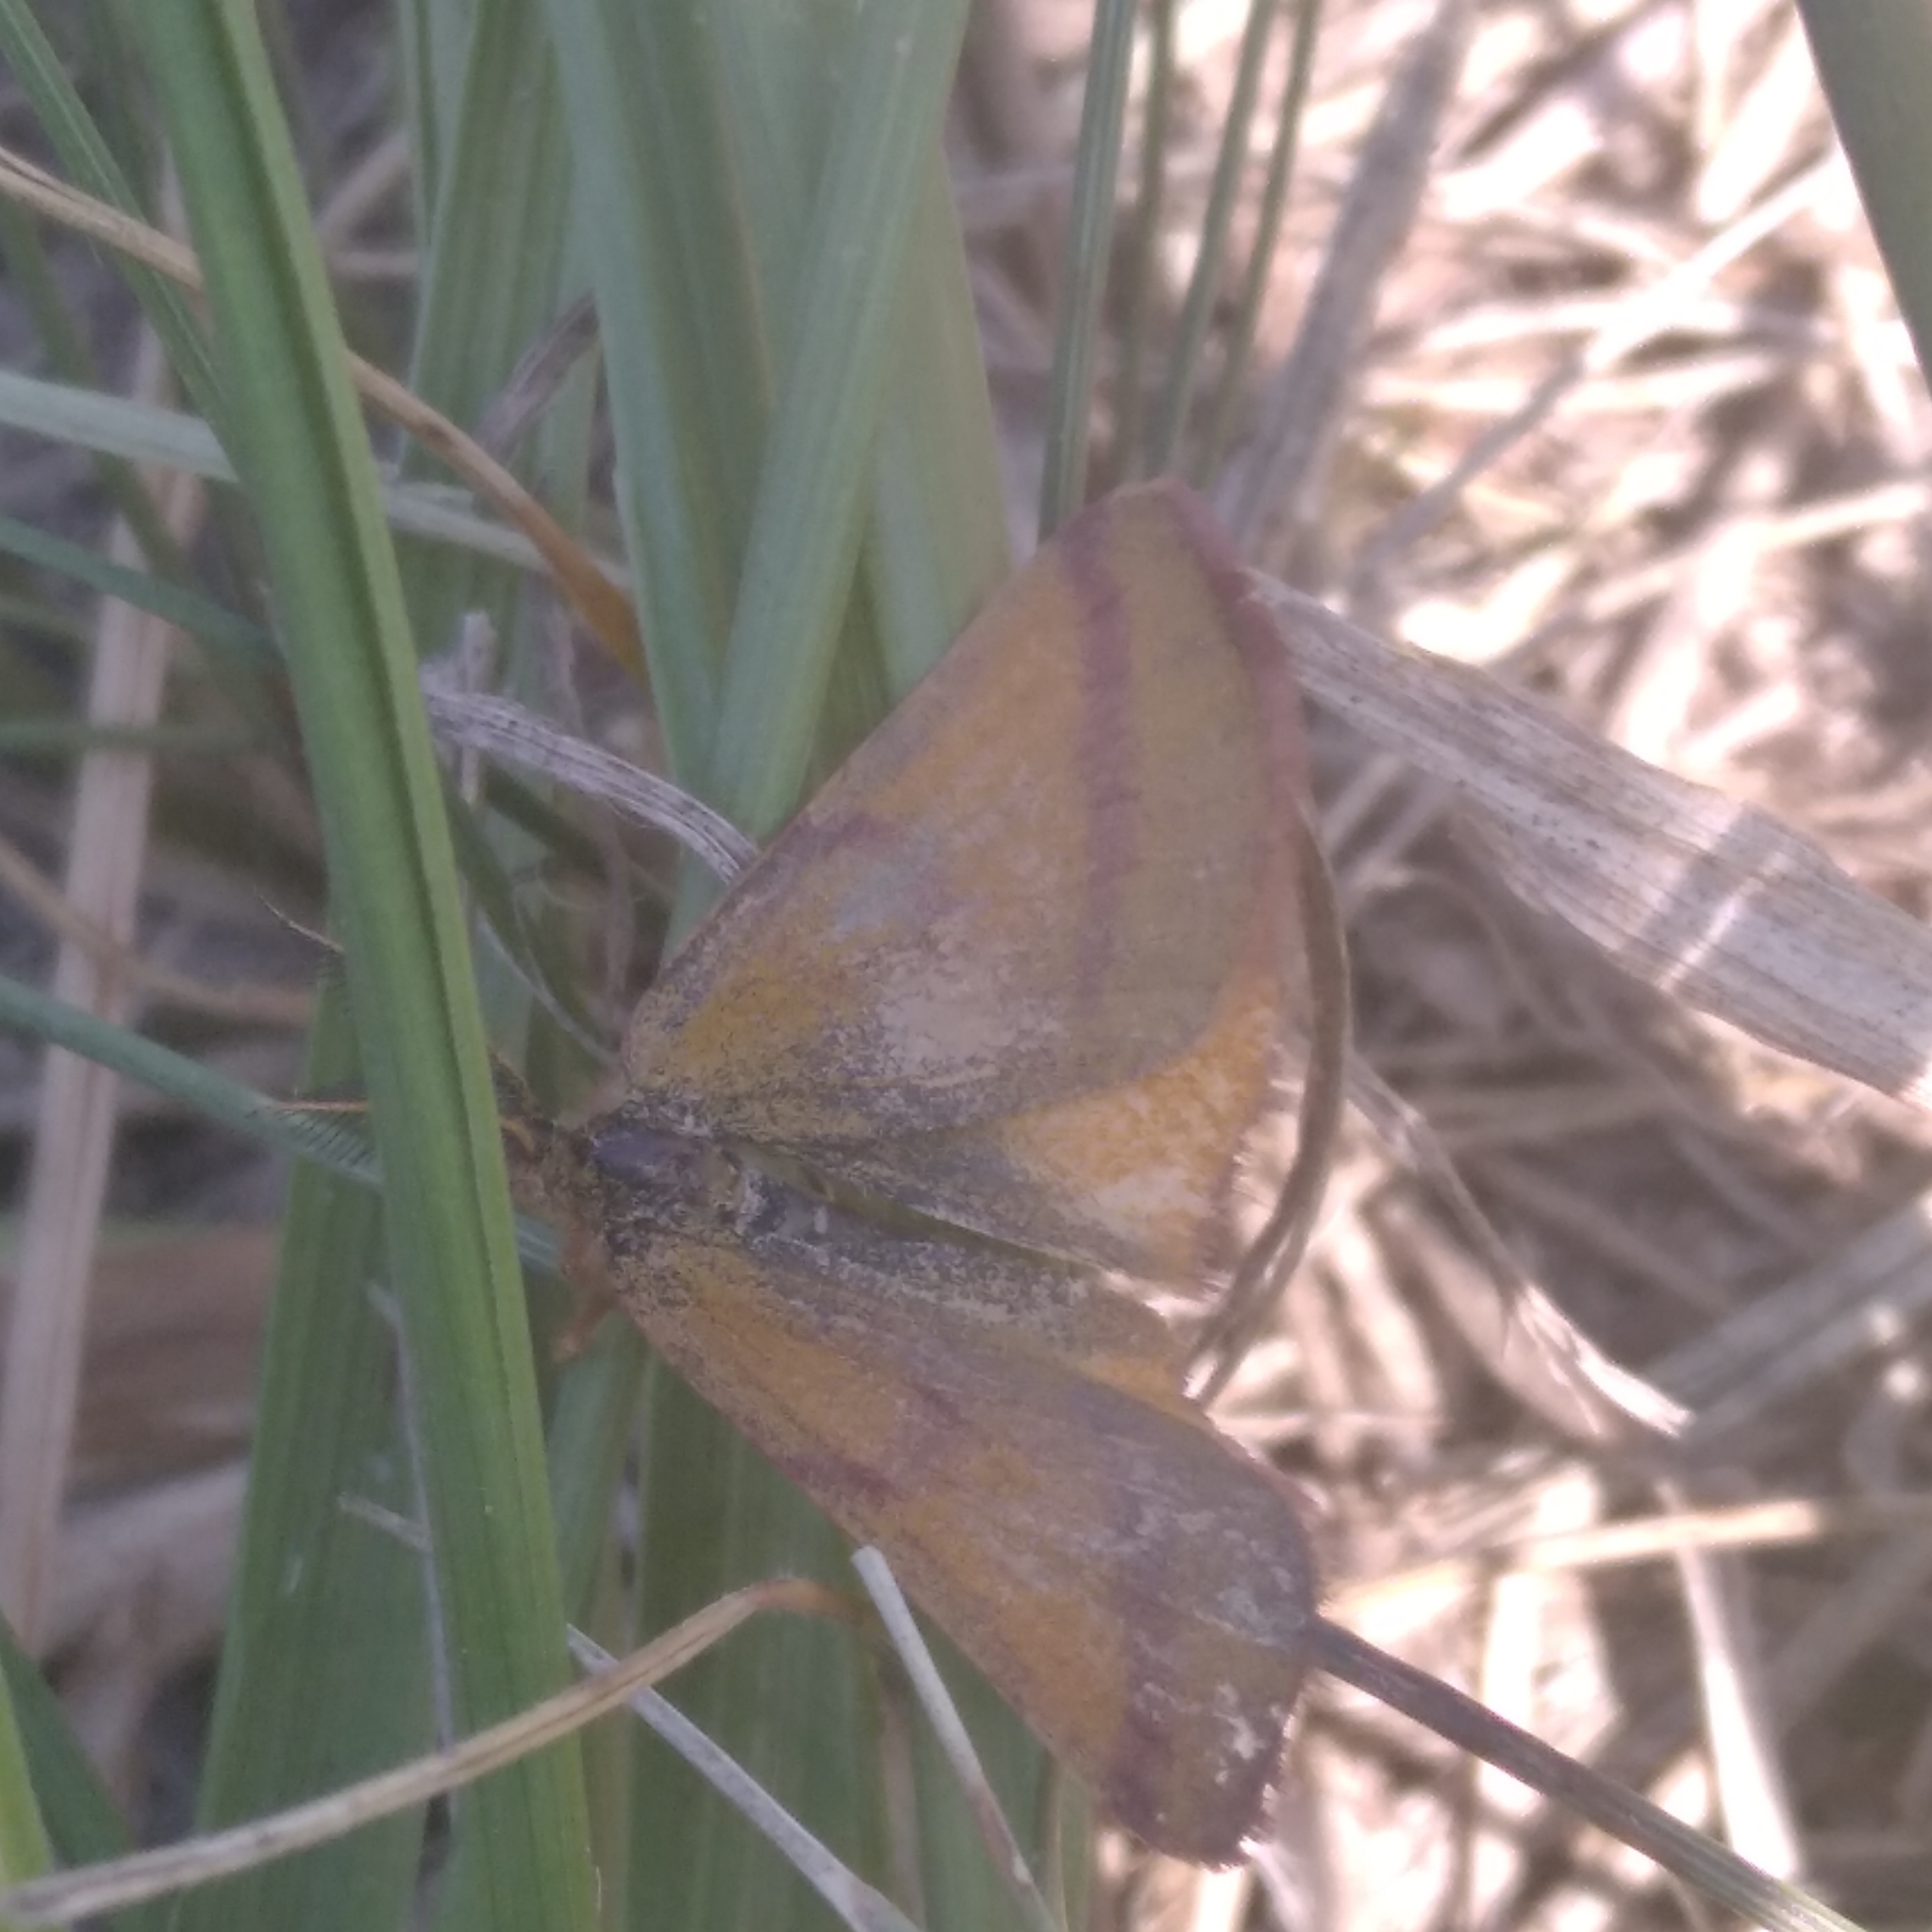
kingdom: Animalia
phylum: Arthropoda
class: Insecta
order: Lepidoptera
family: Geometridae
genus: Lythria
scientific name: Lythria purpuraria
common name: Purple-barred yellow
